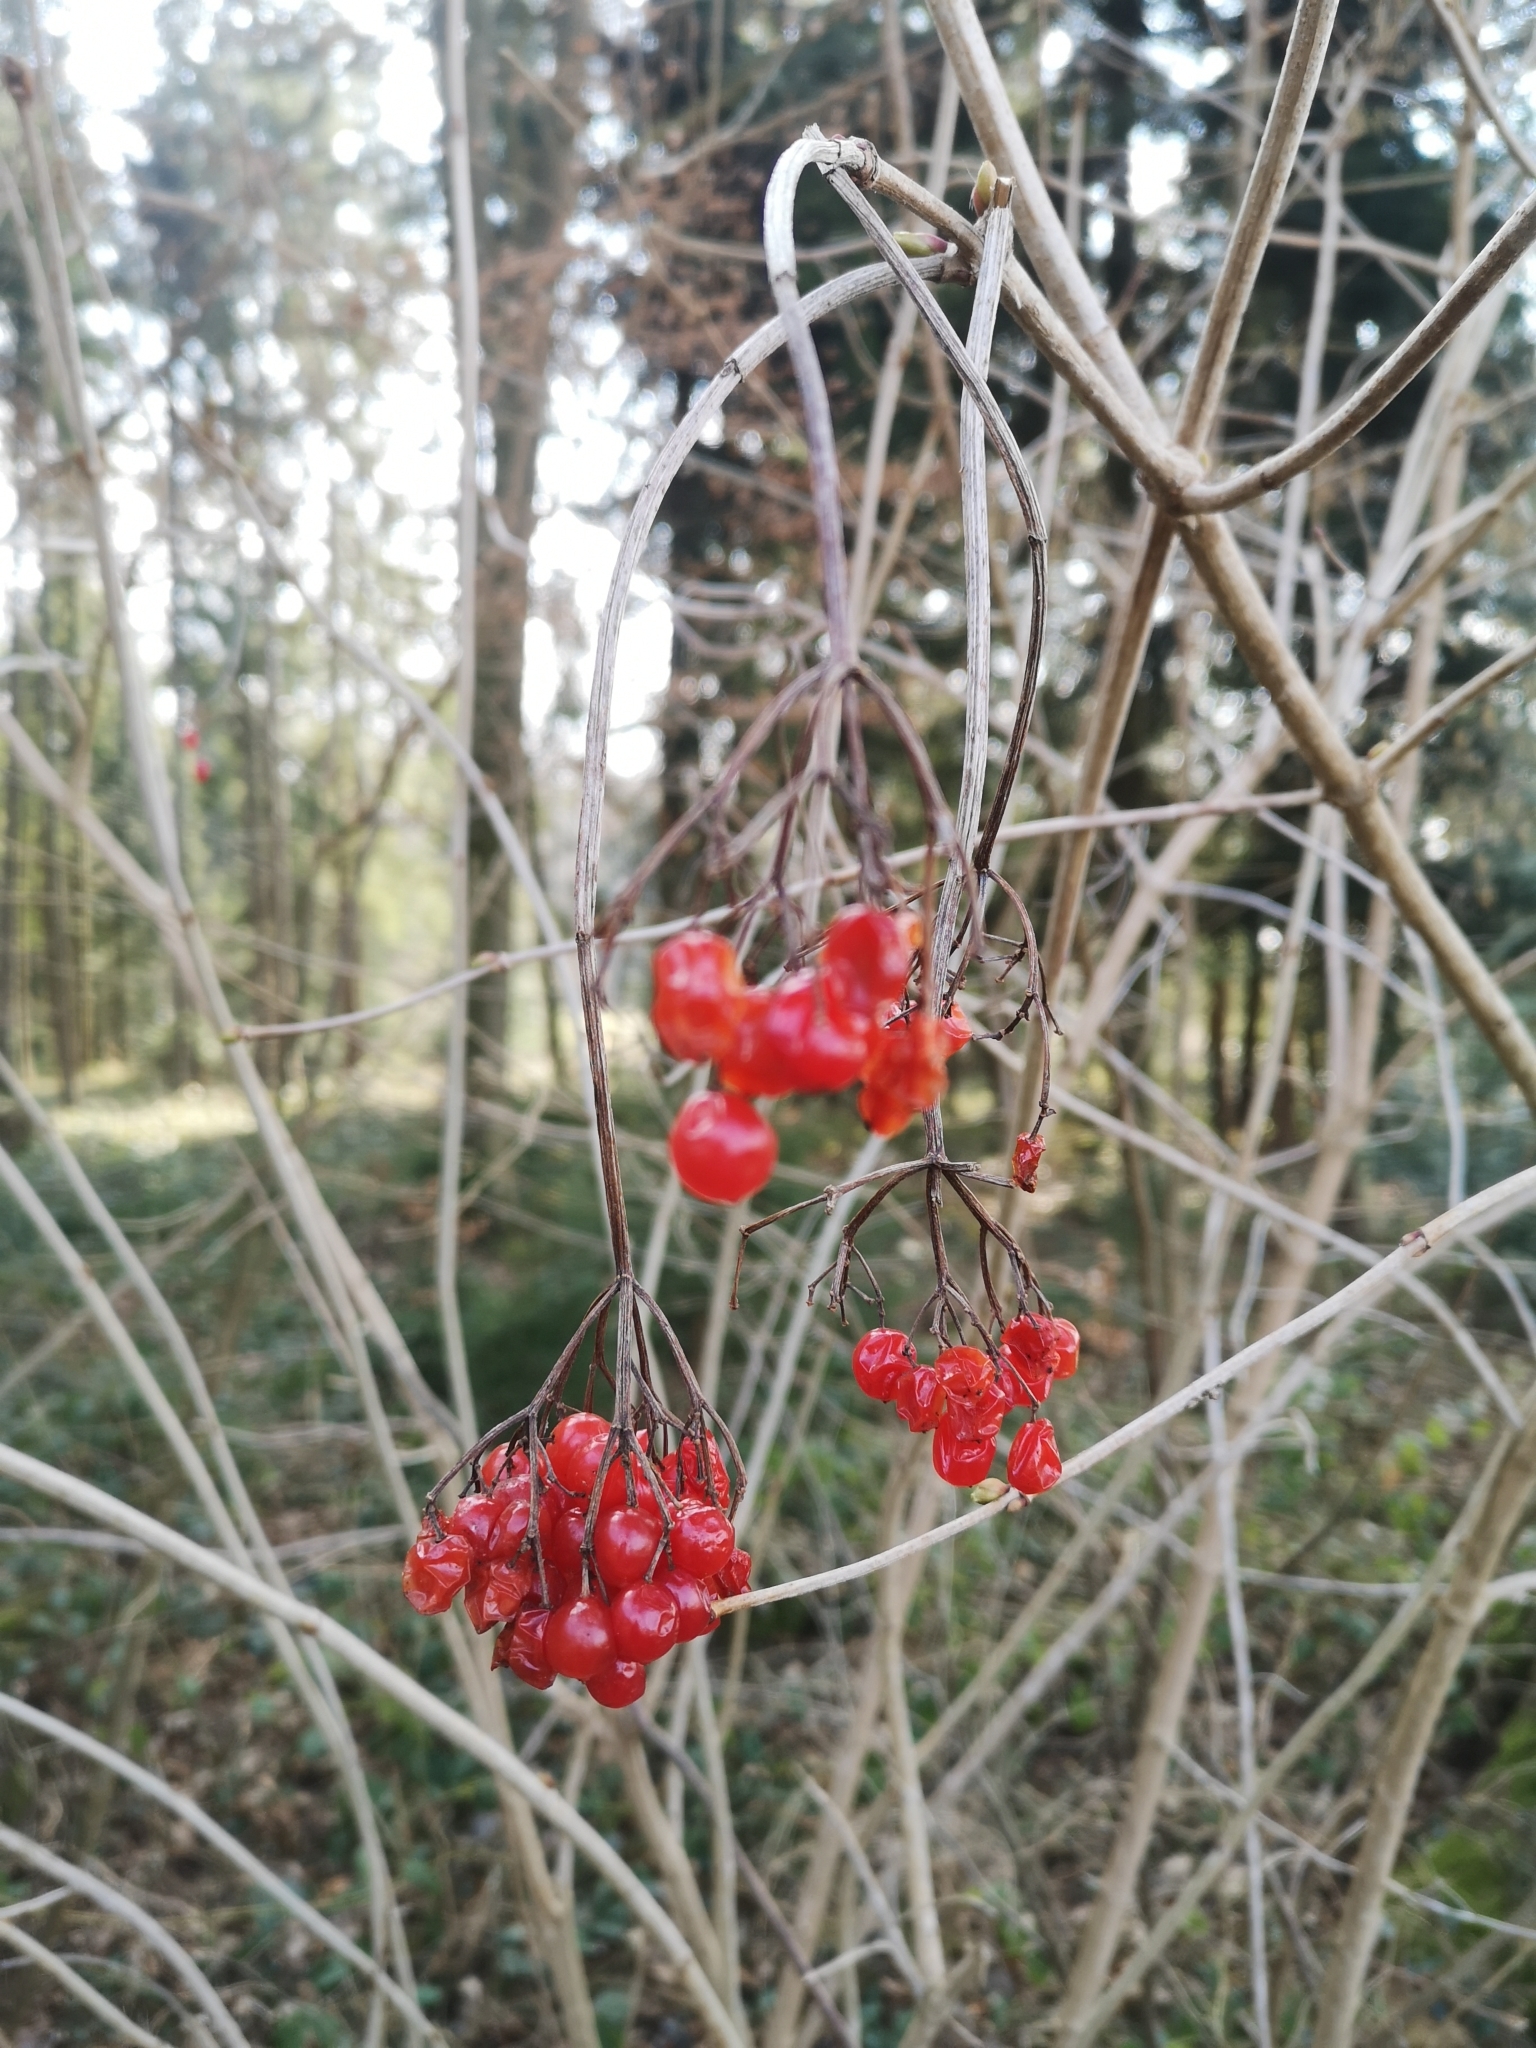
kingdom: Plantae
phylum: Tracheophyta
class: Magnoliopsida
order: Dipsacales
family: Viburnaceae
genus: Viburnum
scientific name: Viburnum opulus
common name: Guelder-rose
